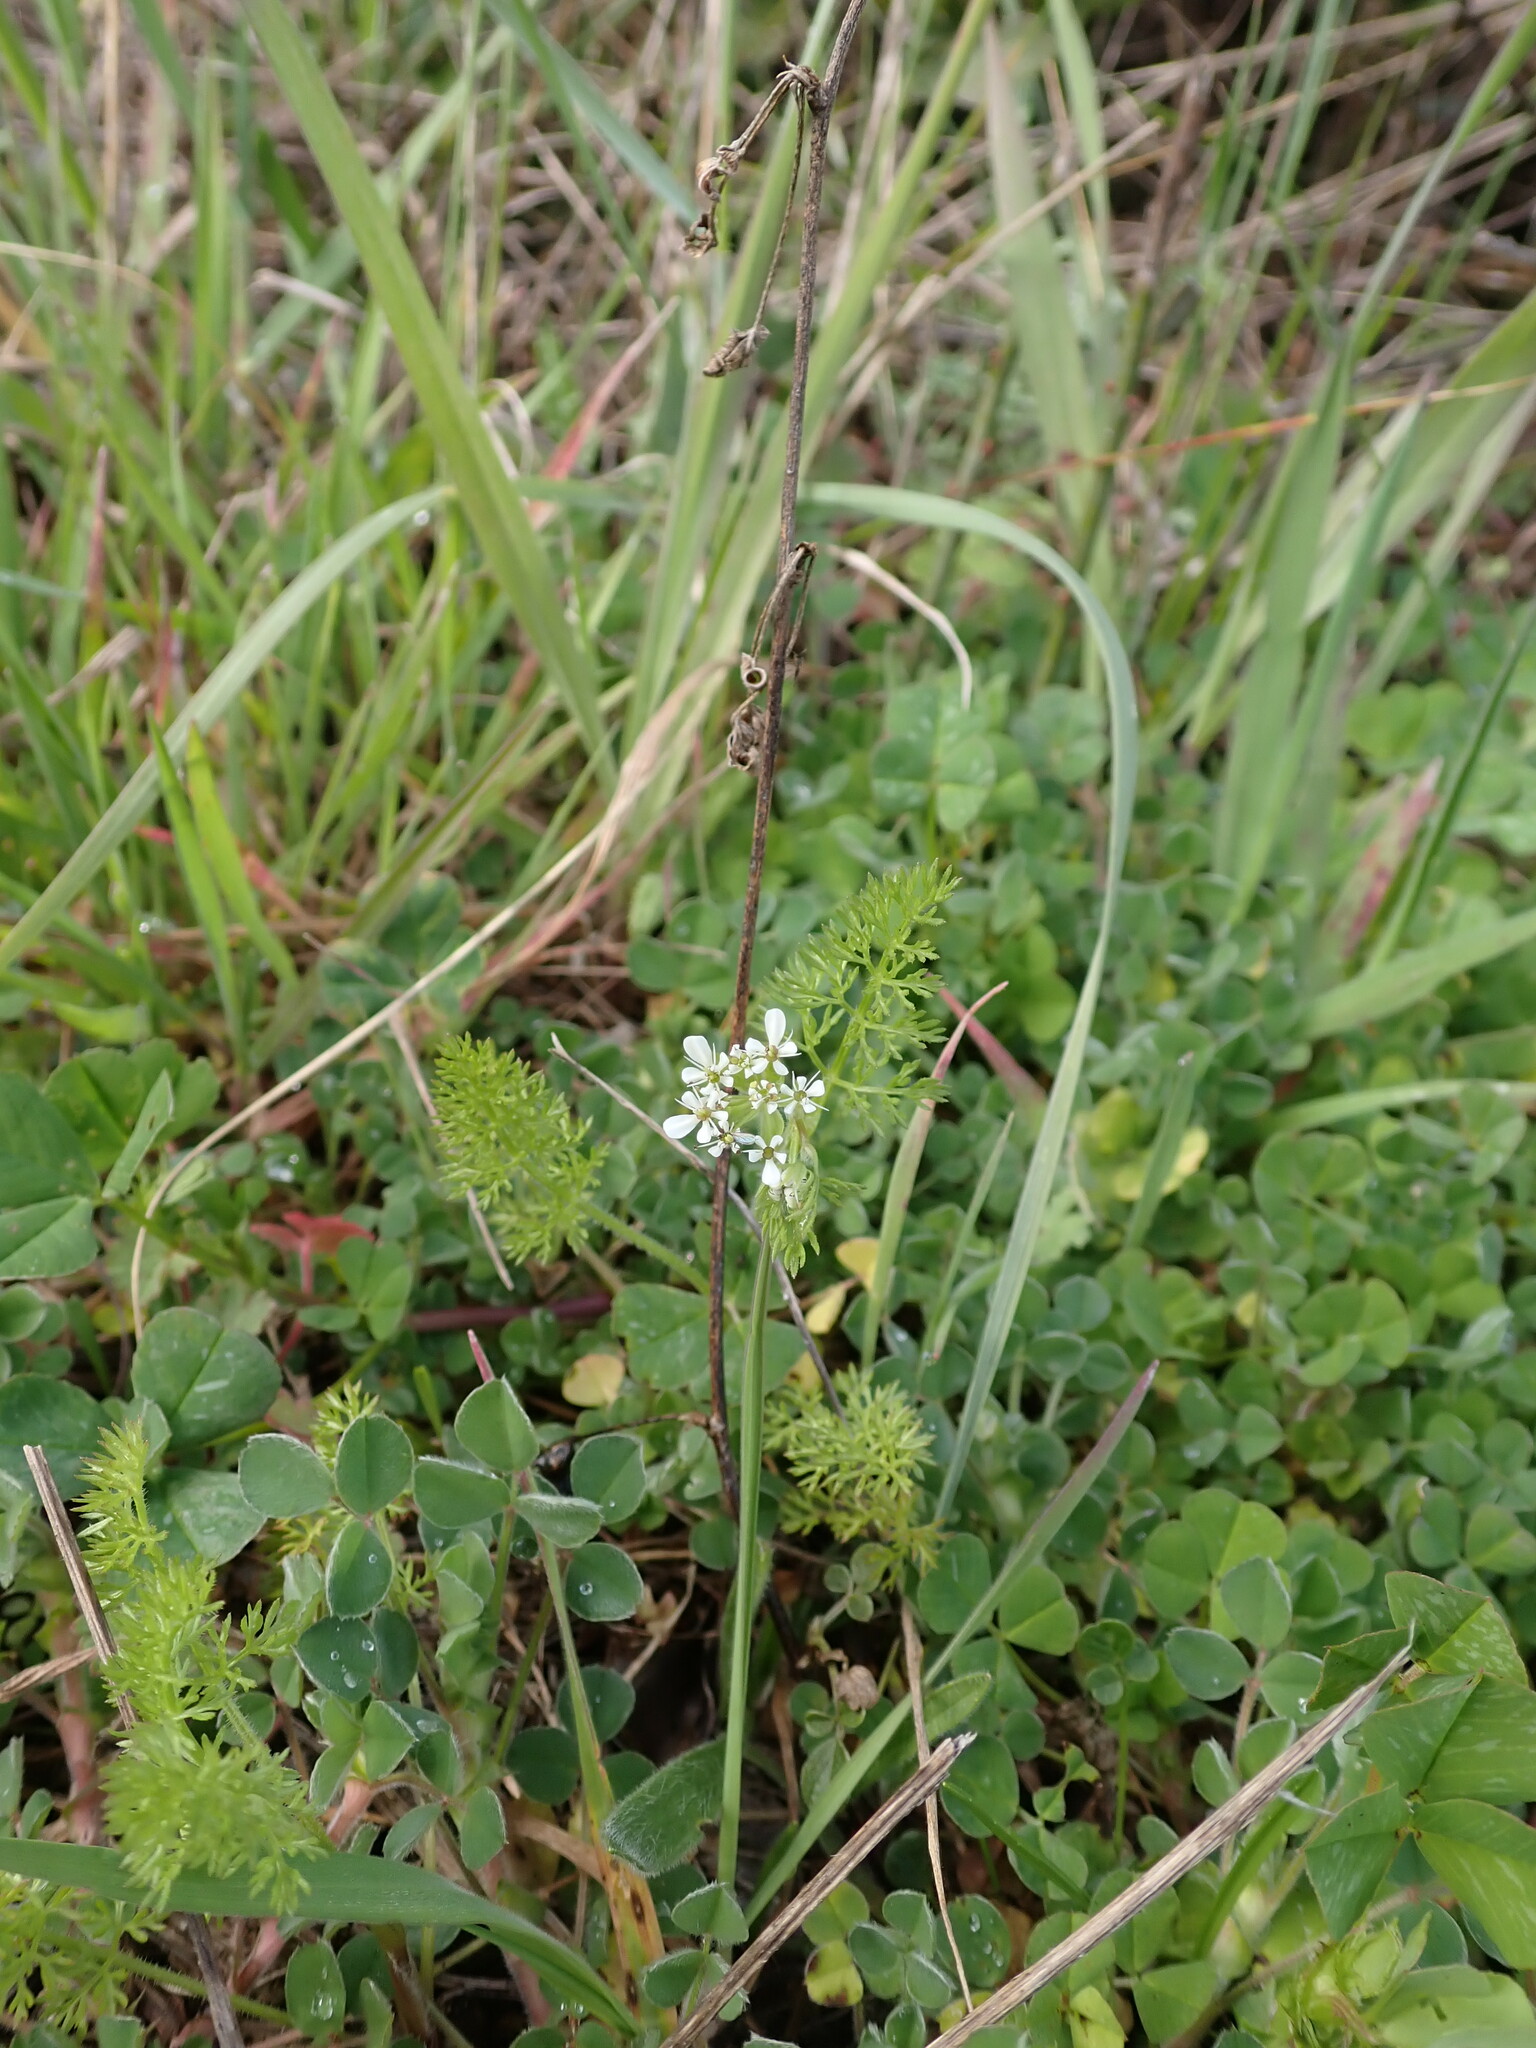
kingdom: Plantae
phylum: Tracheophyta
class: Magnoliopsida
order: Apiales
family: Apiaceae
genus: Scandix
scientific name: Scandix pecten-veneris
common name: Shepherd's-needle
